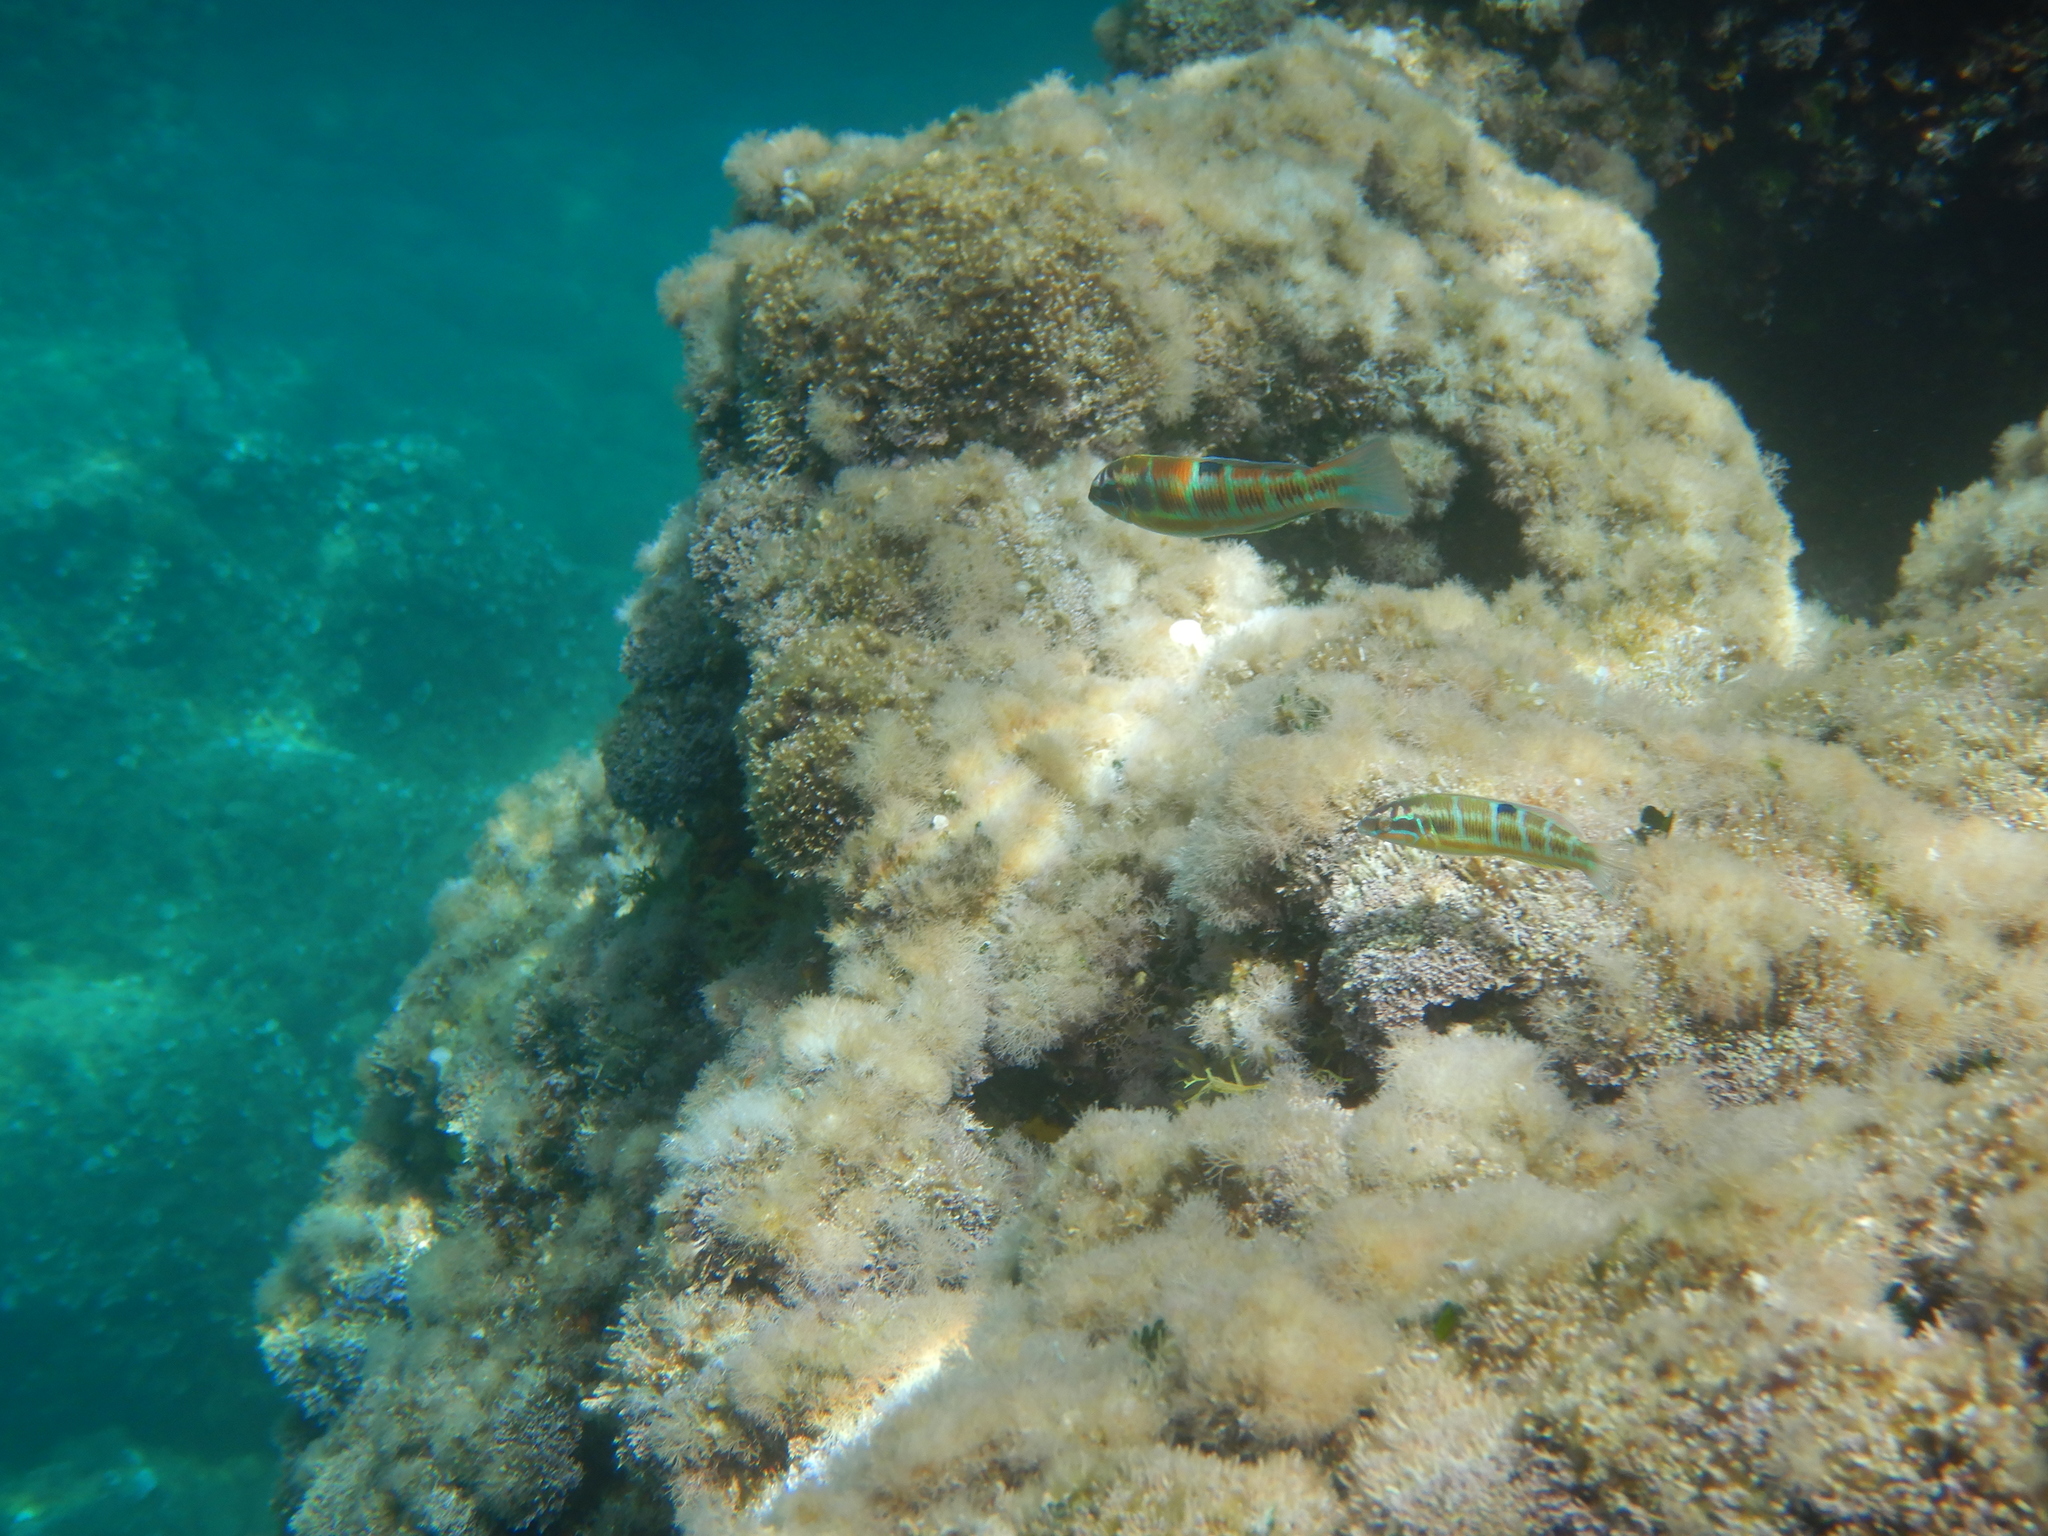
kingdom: Animalia
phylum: Chordata
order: Perciformes
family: Labridae
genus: Thalassoma
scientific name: Thalassoma pavo
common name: Ornate wrasse
